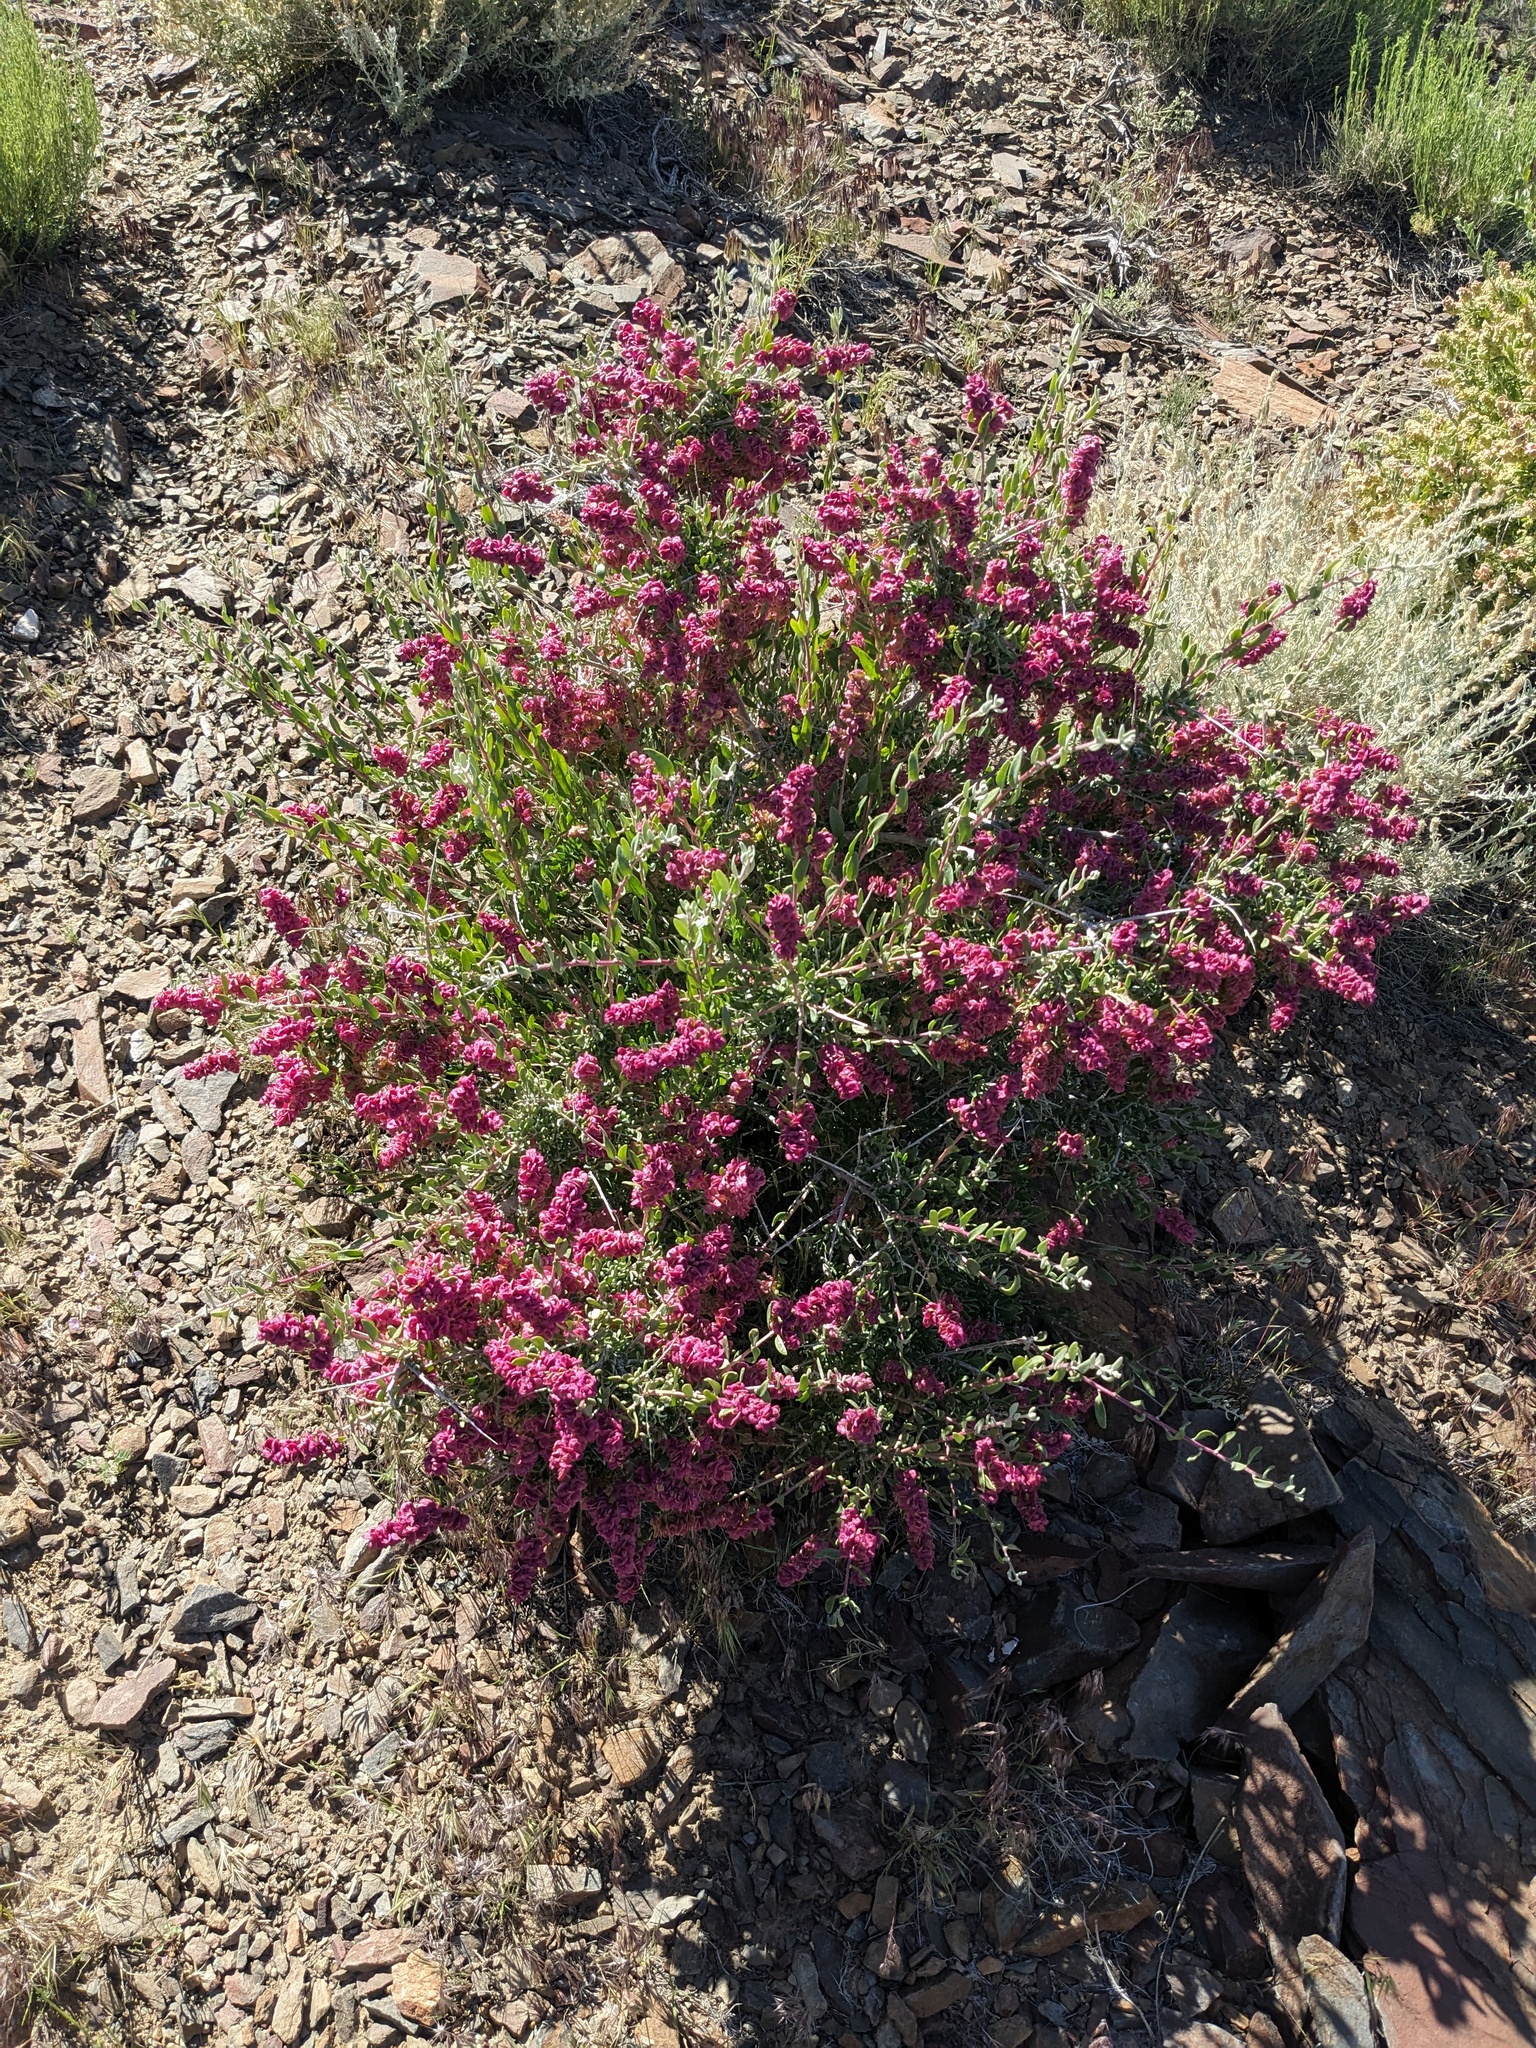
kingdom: Plantae
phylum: Tracheophyta
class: Magnoliopsida
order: Caryophyllales
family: Amaranthaceae
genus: Grayia
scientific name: Grayia spinosa
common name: Spiny hopsage
